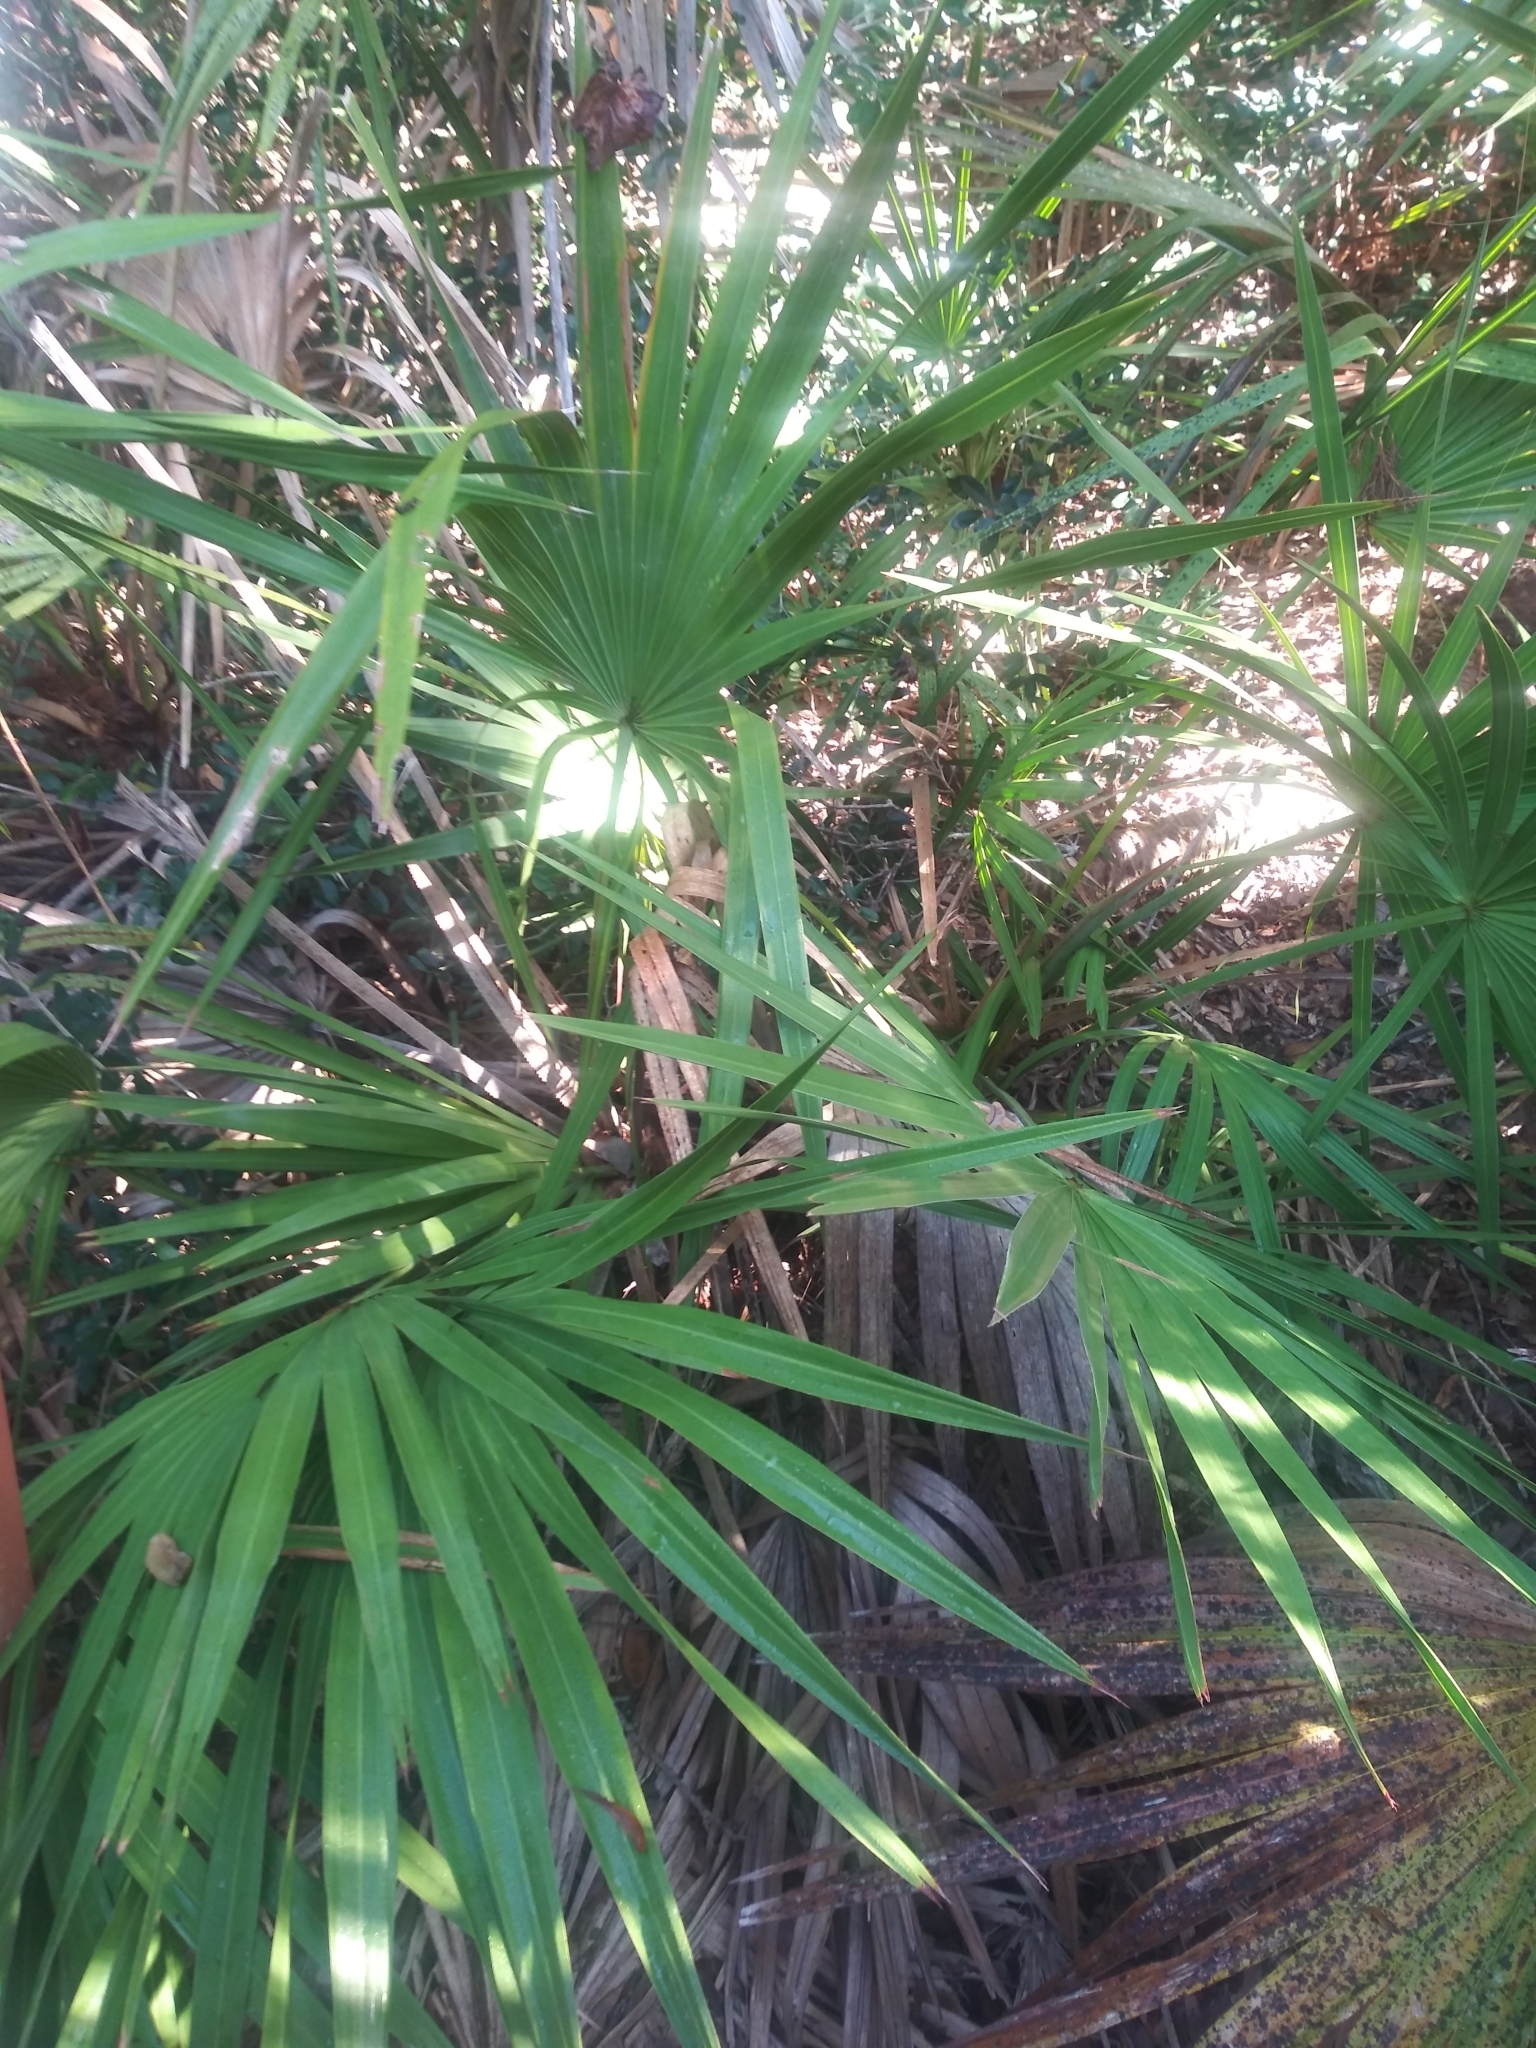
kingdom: Plantae
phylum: Tracheophyta
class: Liliopsida
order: Arecales
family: Arecaceae
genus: Serenoa
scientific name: Serenoa repens
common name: Saw-palmetto
